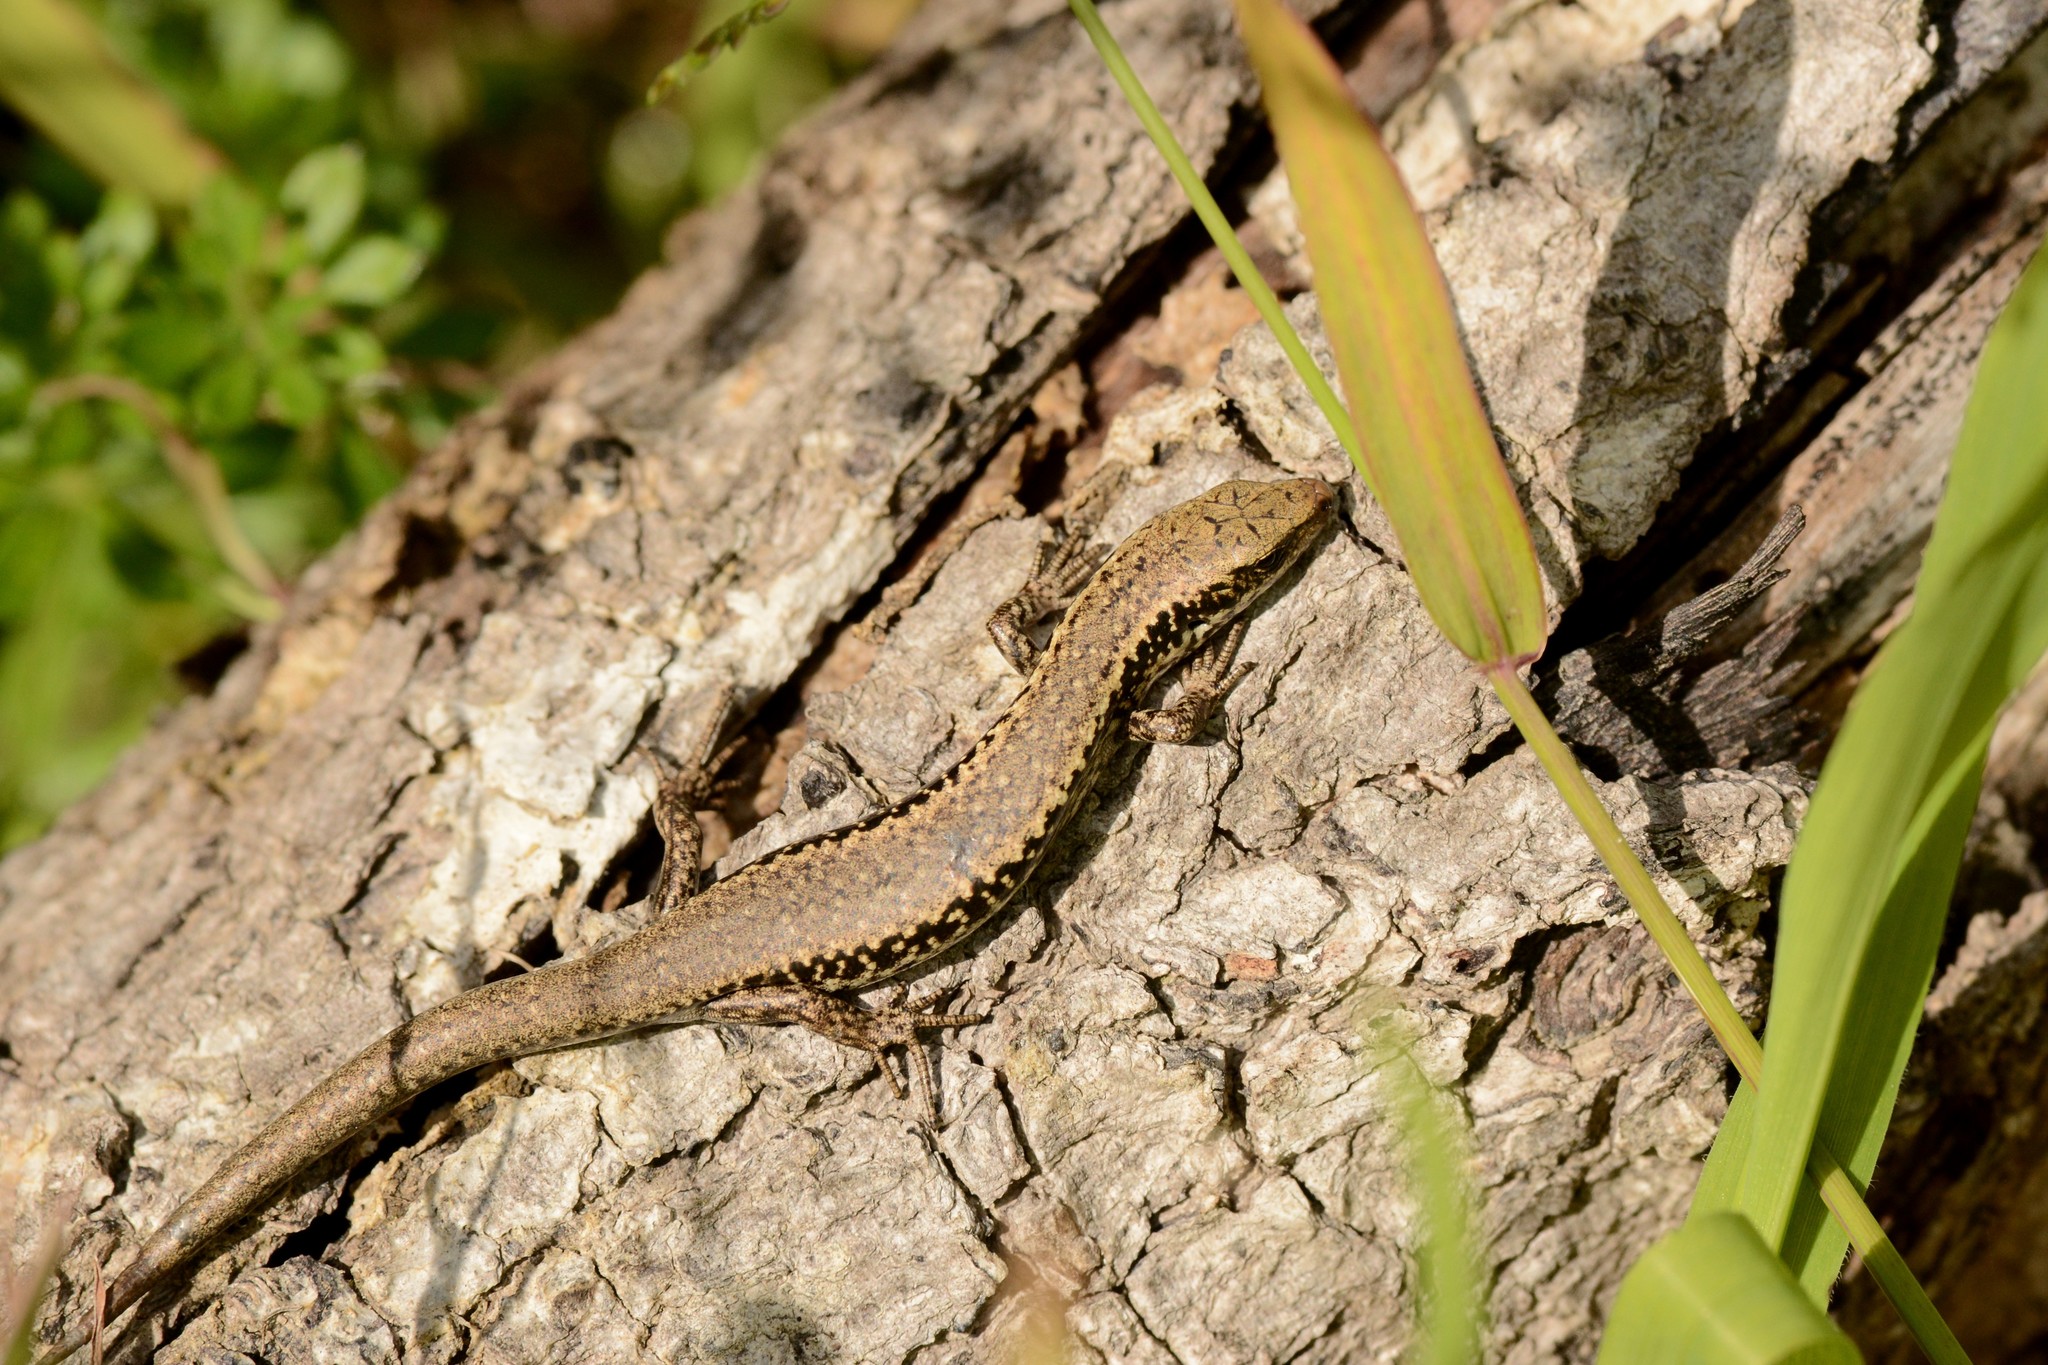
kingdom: Animalia
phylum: Chordata
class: Squamata
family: Scincidae
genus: Oligosoma
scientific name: Oligosoma kokowai
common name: Northern spotted skink
